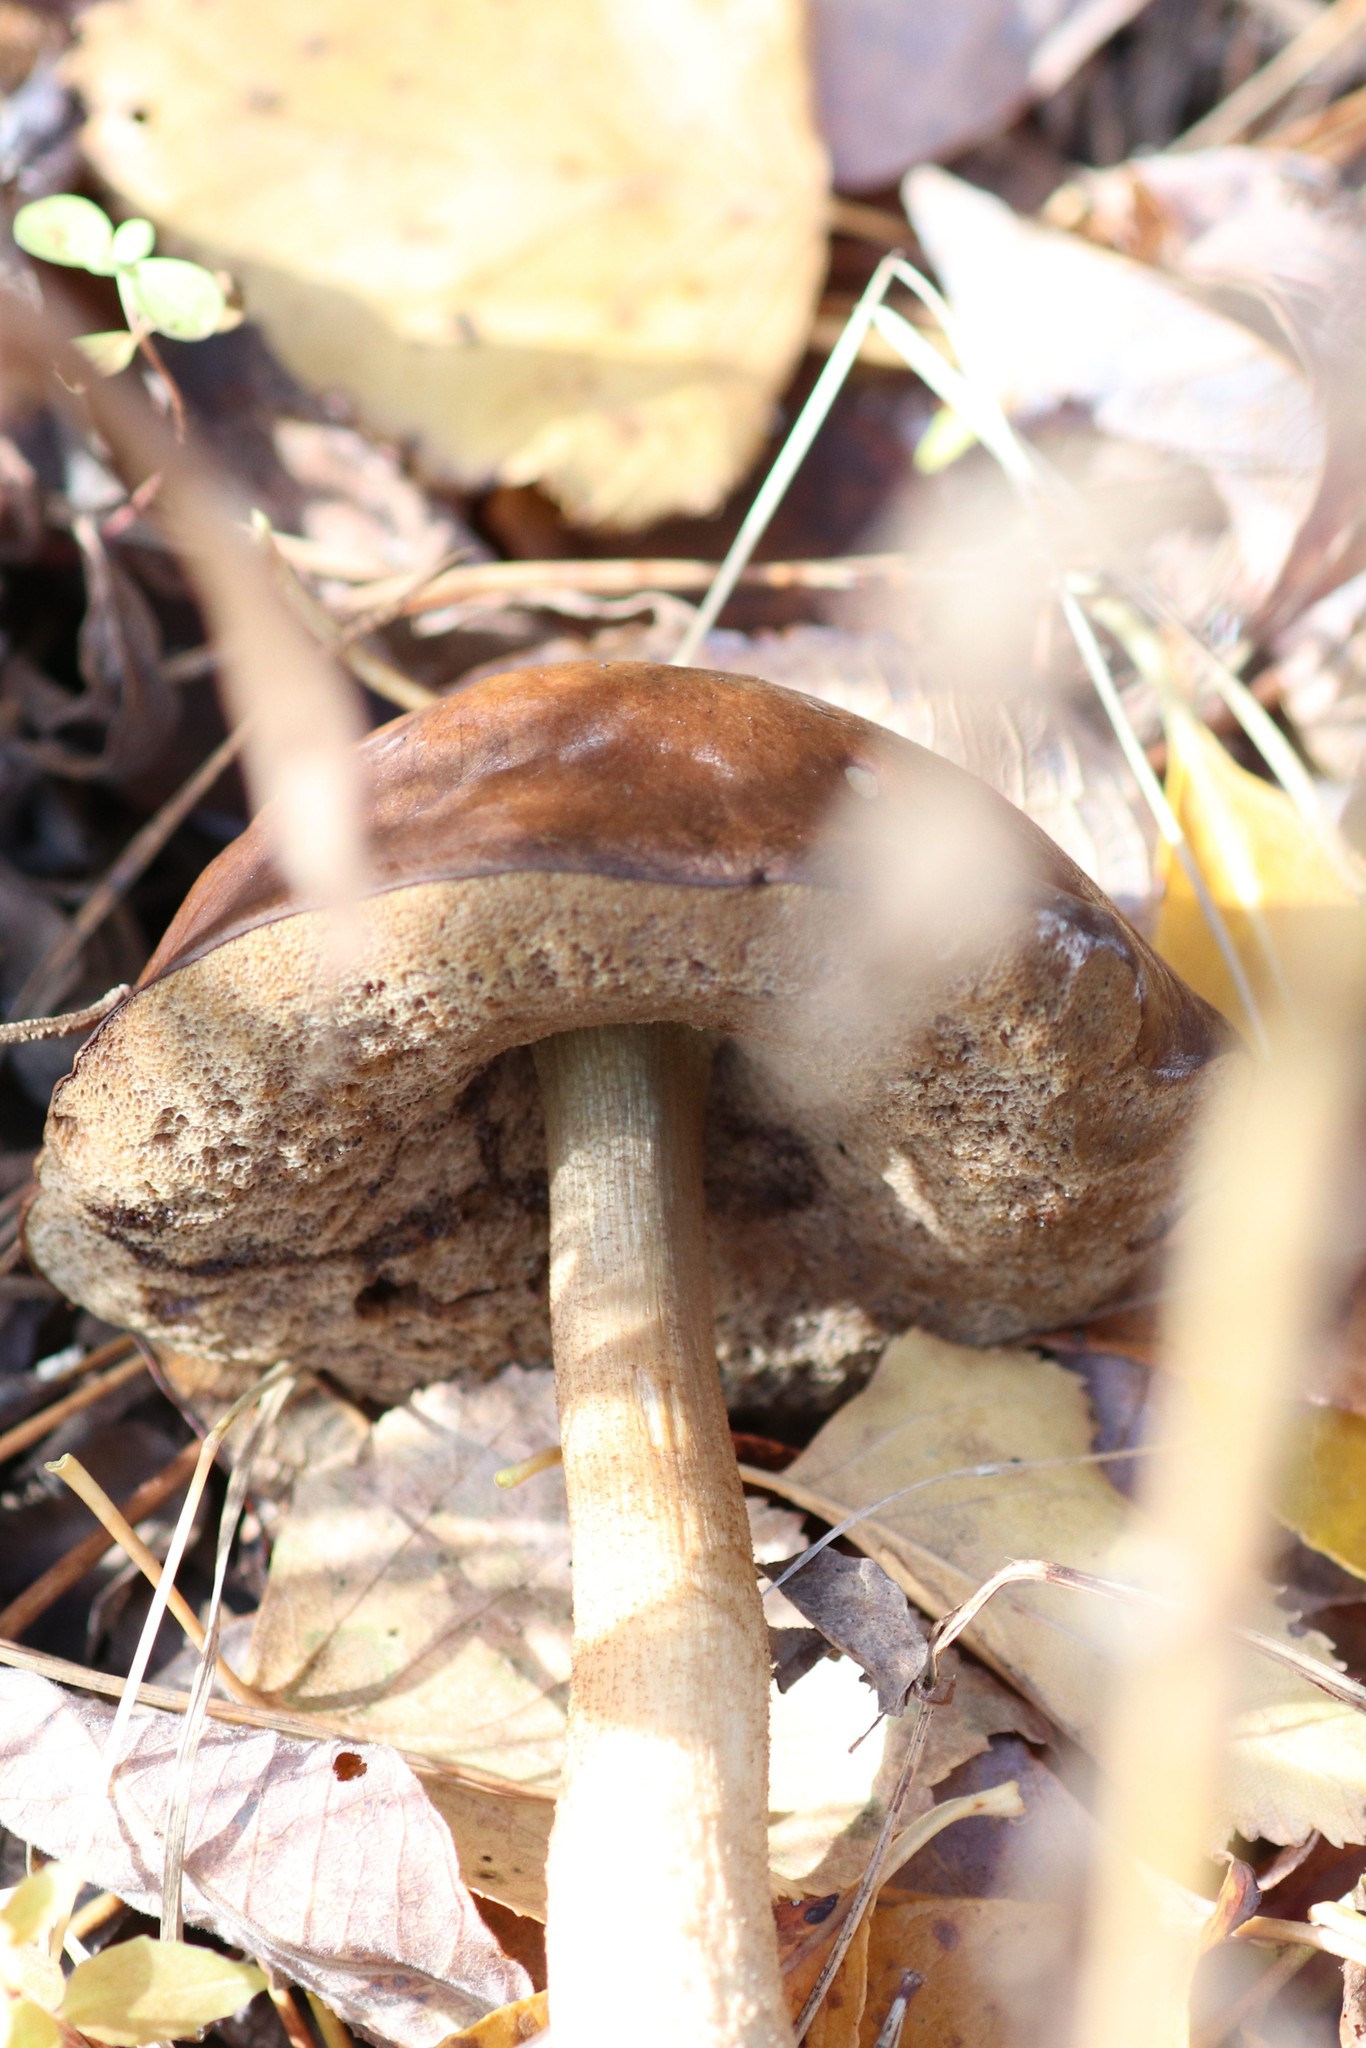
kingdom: Fungi
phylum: Basidiomycota
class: Agaricomycetes
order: Boletales
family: Boletaceae
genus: Leccinum
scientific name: Leccinum scabrum
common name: Blushing bolete
